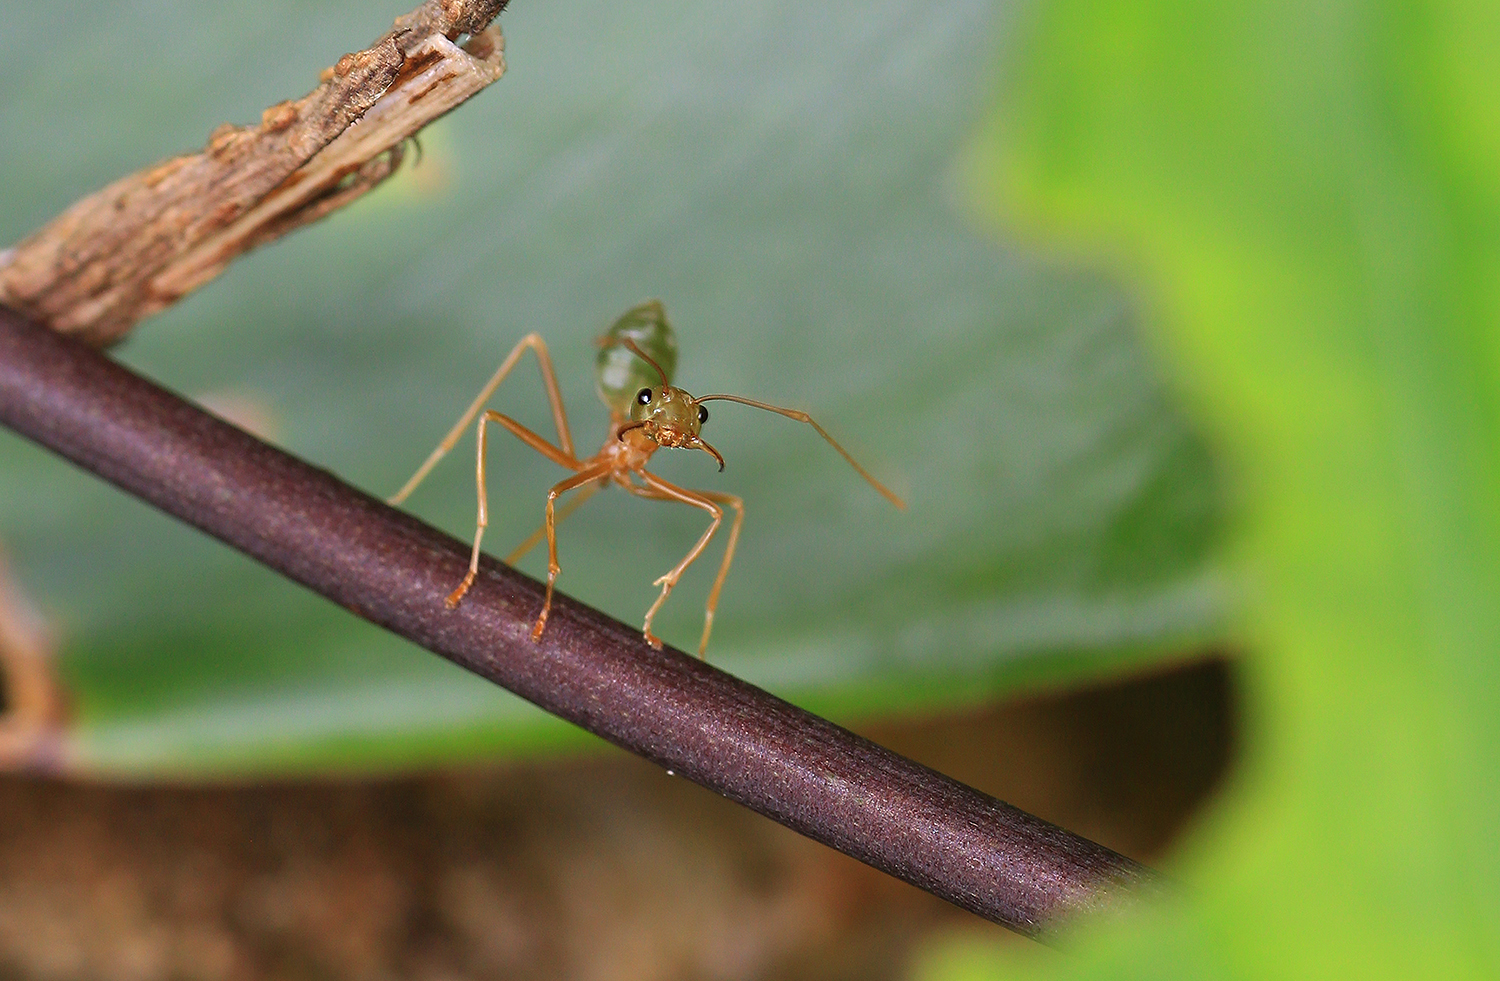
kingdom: Animalia
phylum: Arthropoda
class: Insecta
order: Hymenoptera
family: Formicidae
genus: Oecophylla
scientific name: Oecophylla smaragdina
